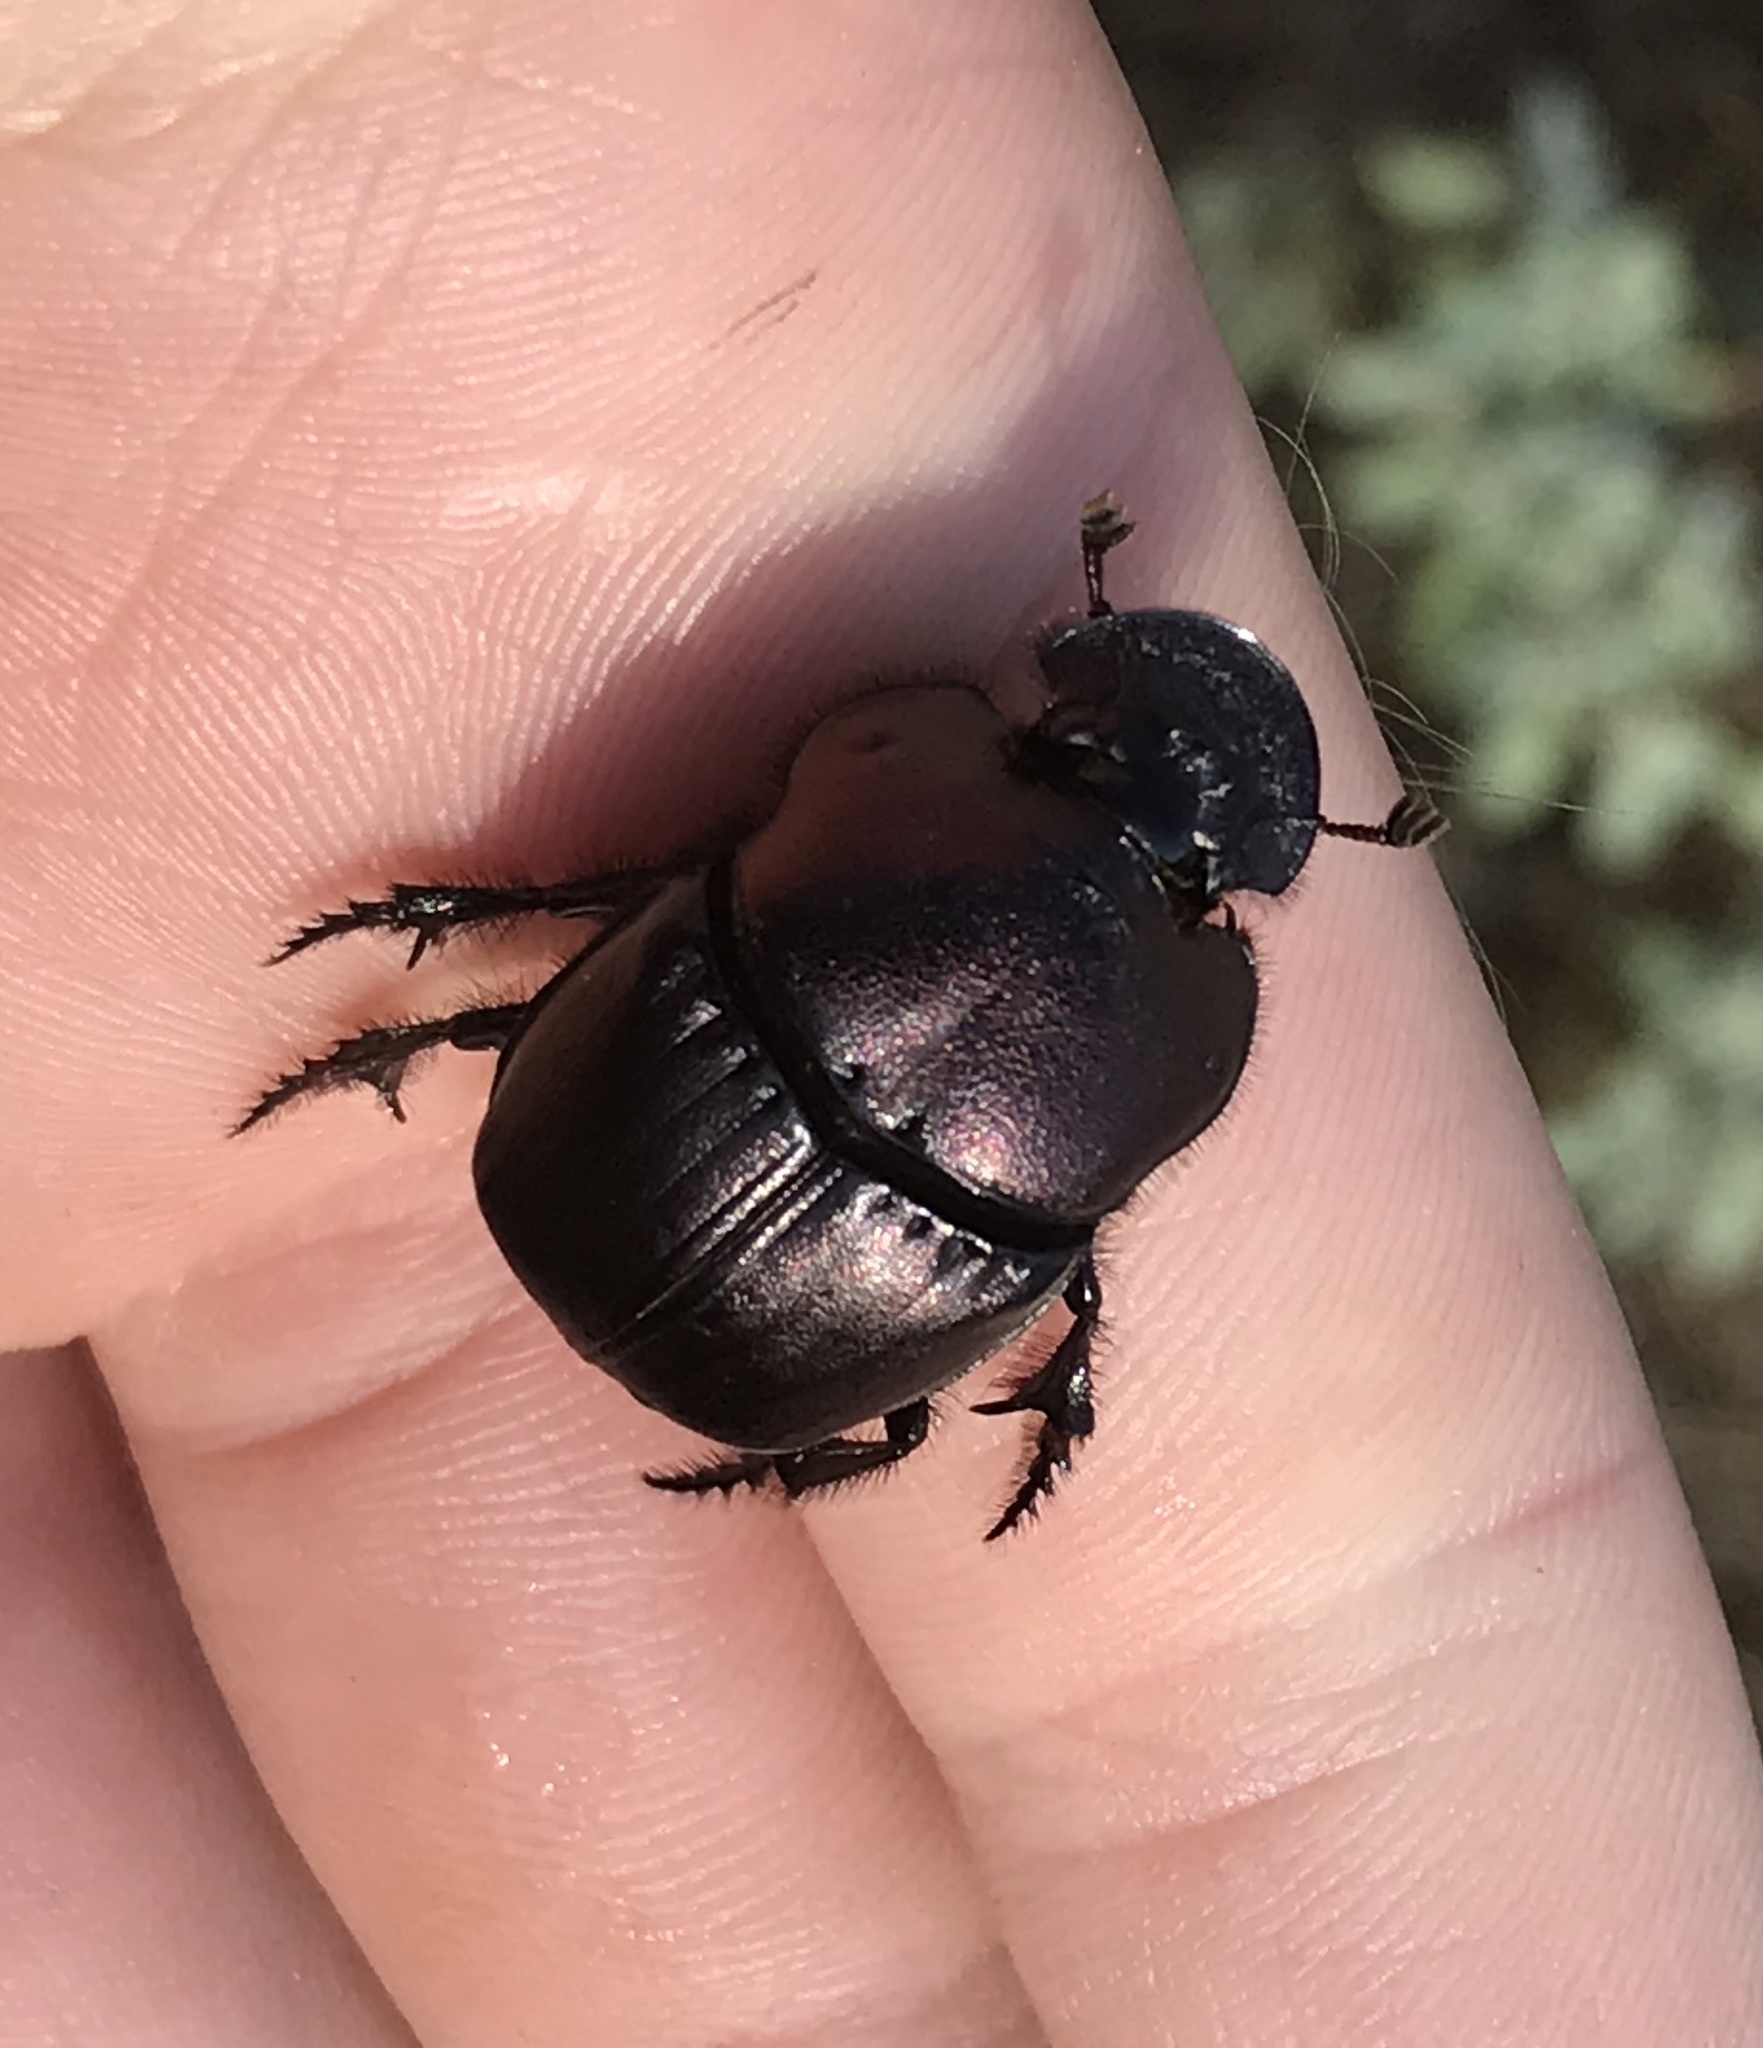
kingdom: Animalia
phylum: Arthropoda
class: Insecta
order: Coleoptera
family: Scarabaeidae
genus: Phanaeus
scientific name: Phanaeus texensis
